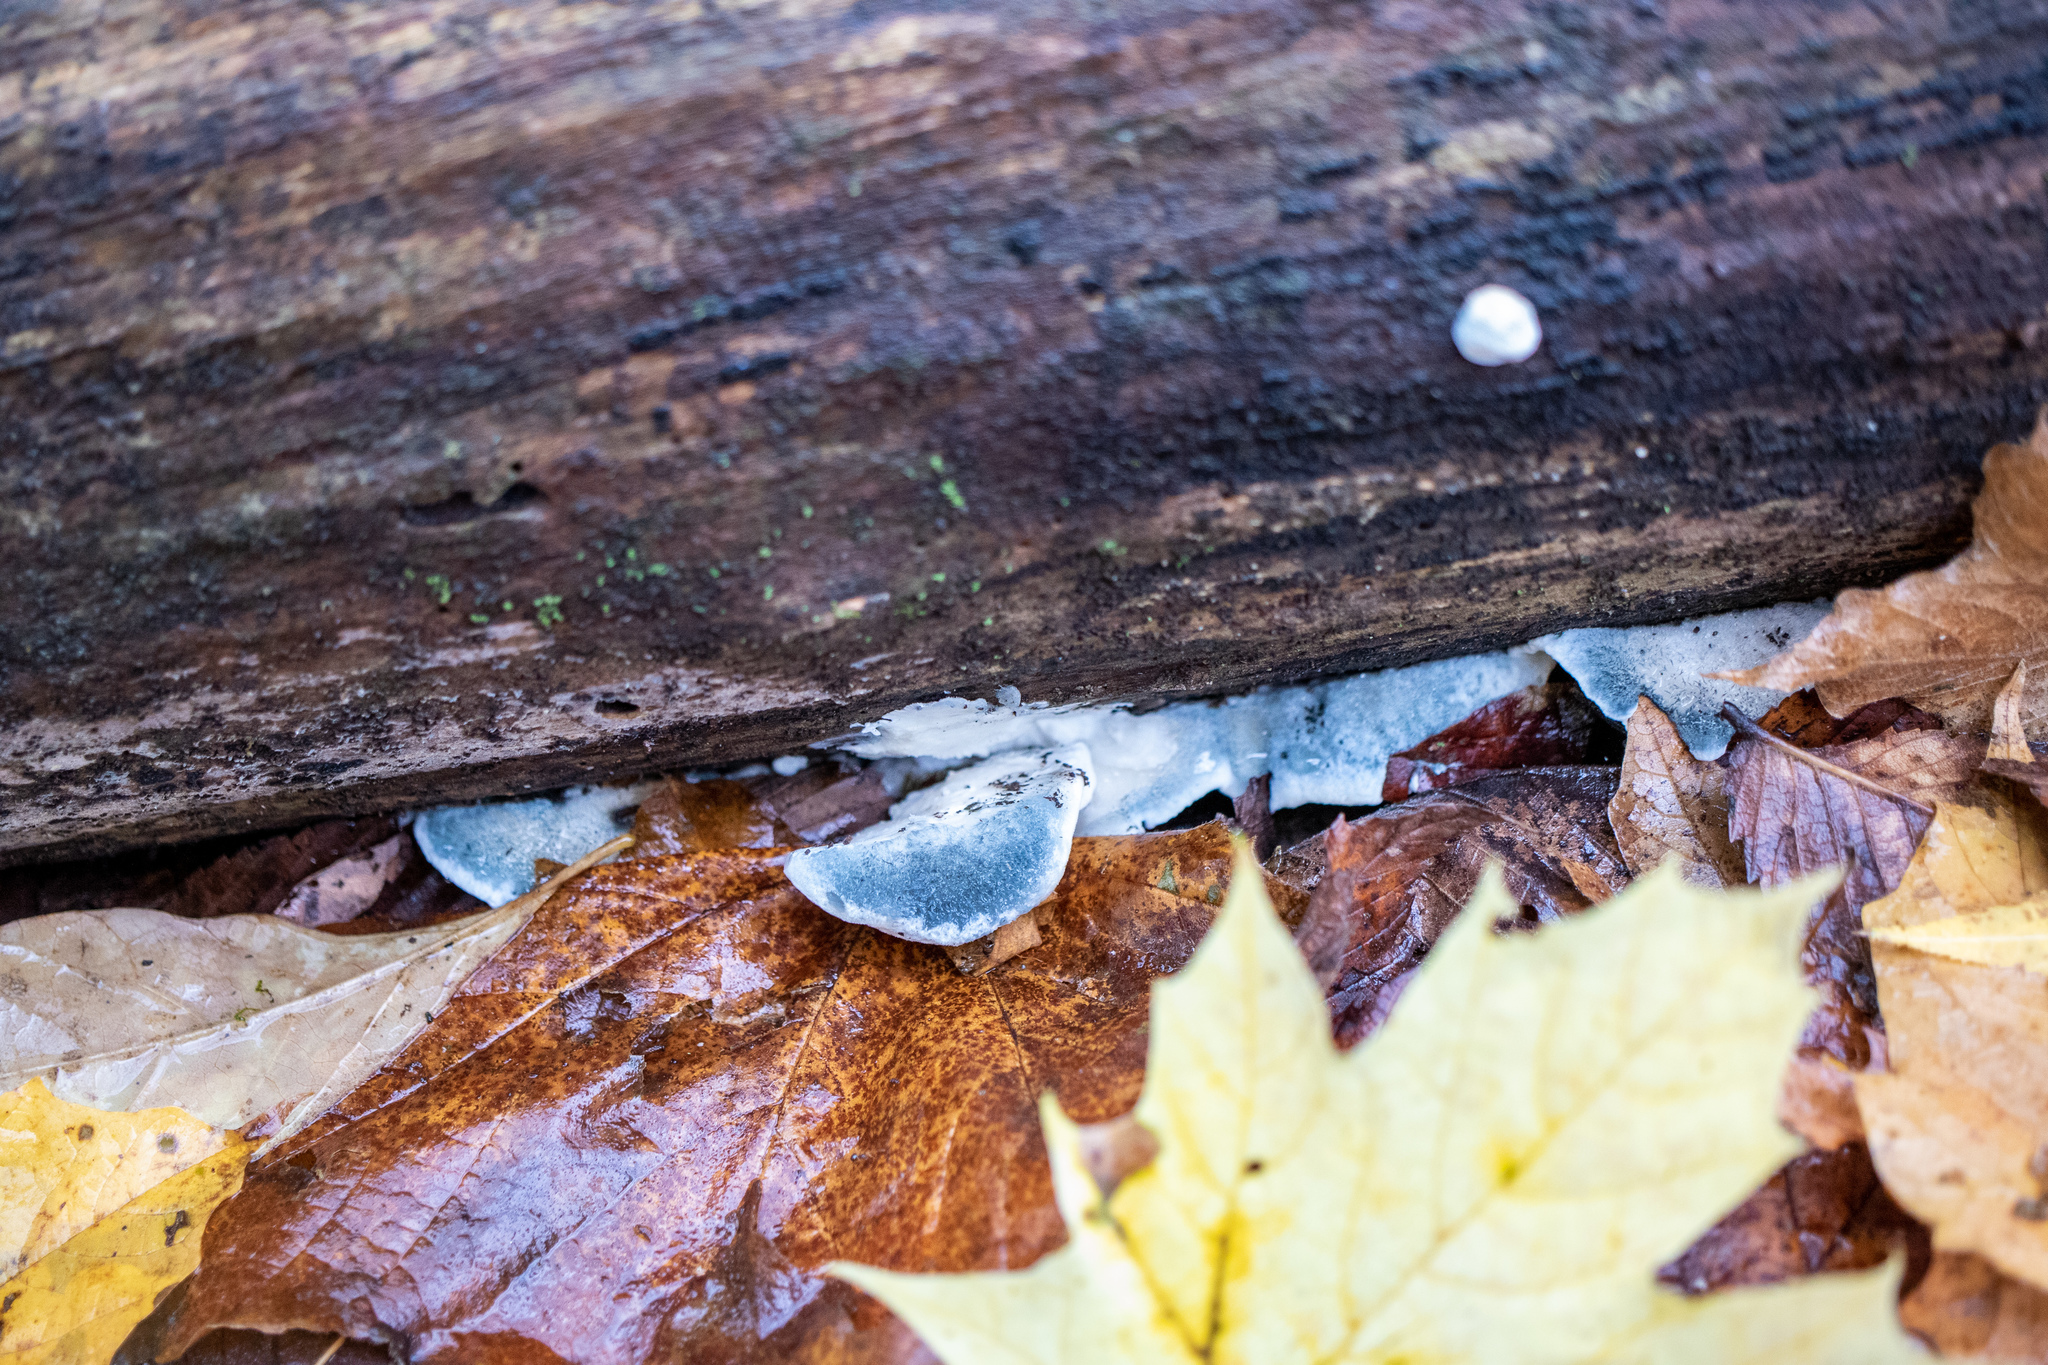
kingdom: Fungi
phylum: Basidiomycota
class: Agaricomycetes
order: Polyporales
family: Polyporaceae
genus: Cyanosporus
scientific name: Cyanosporus livens
